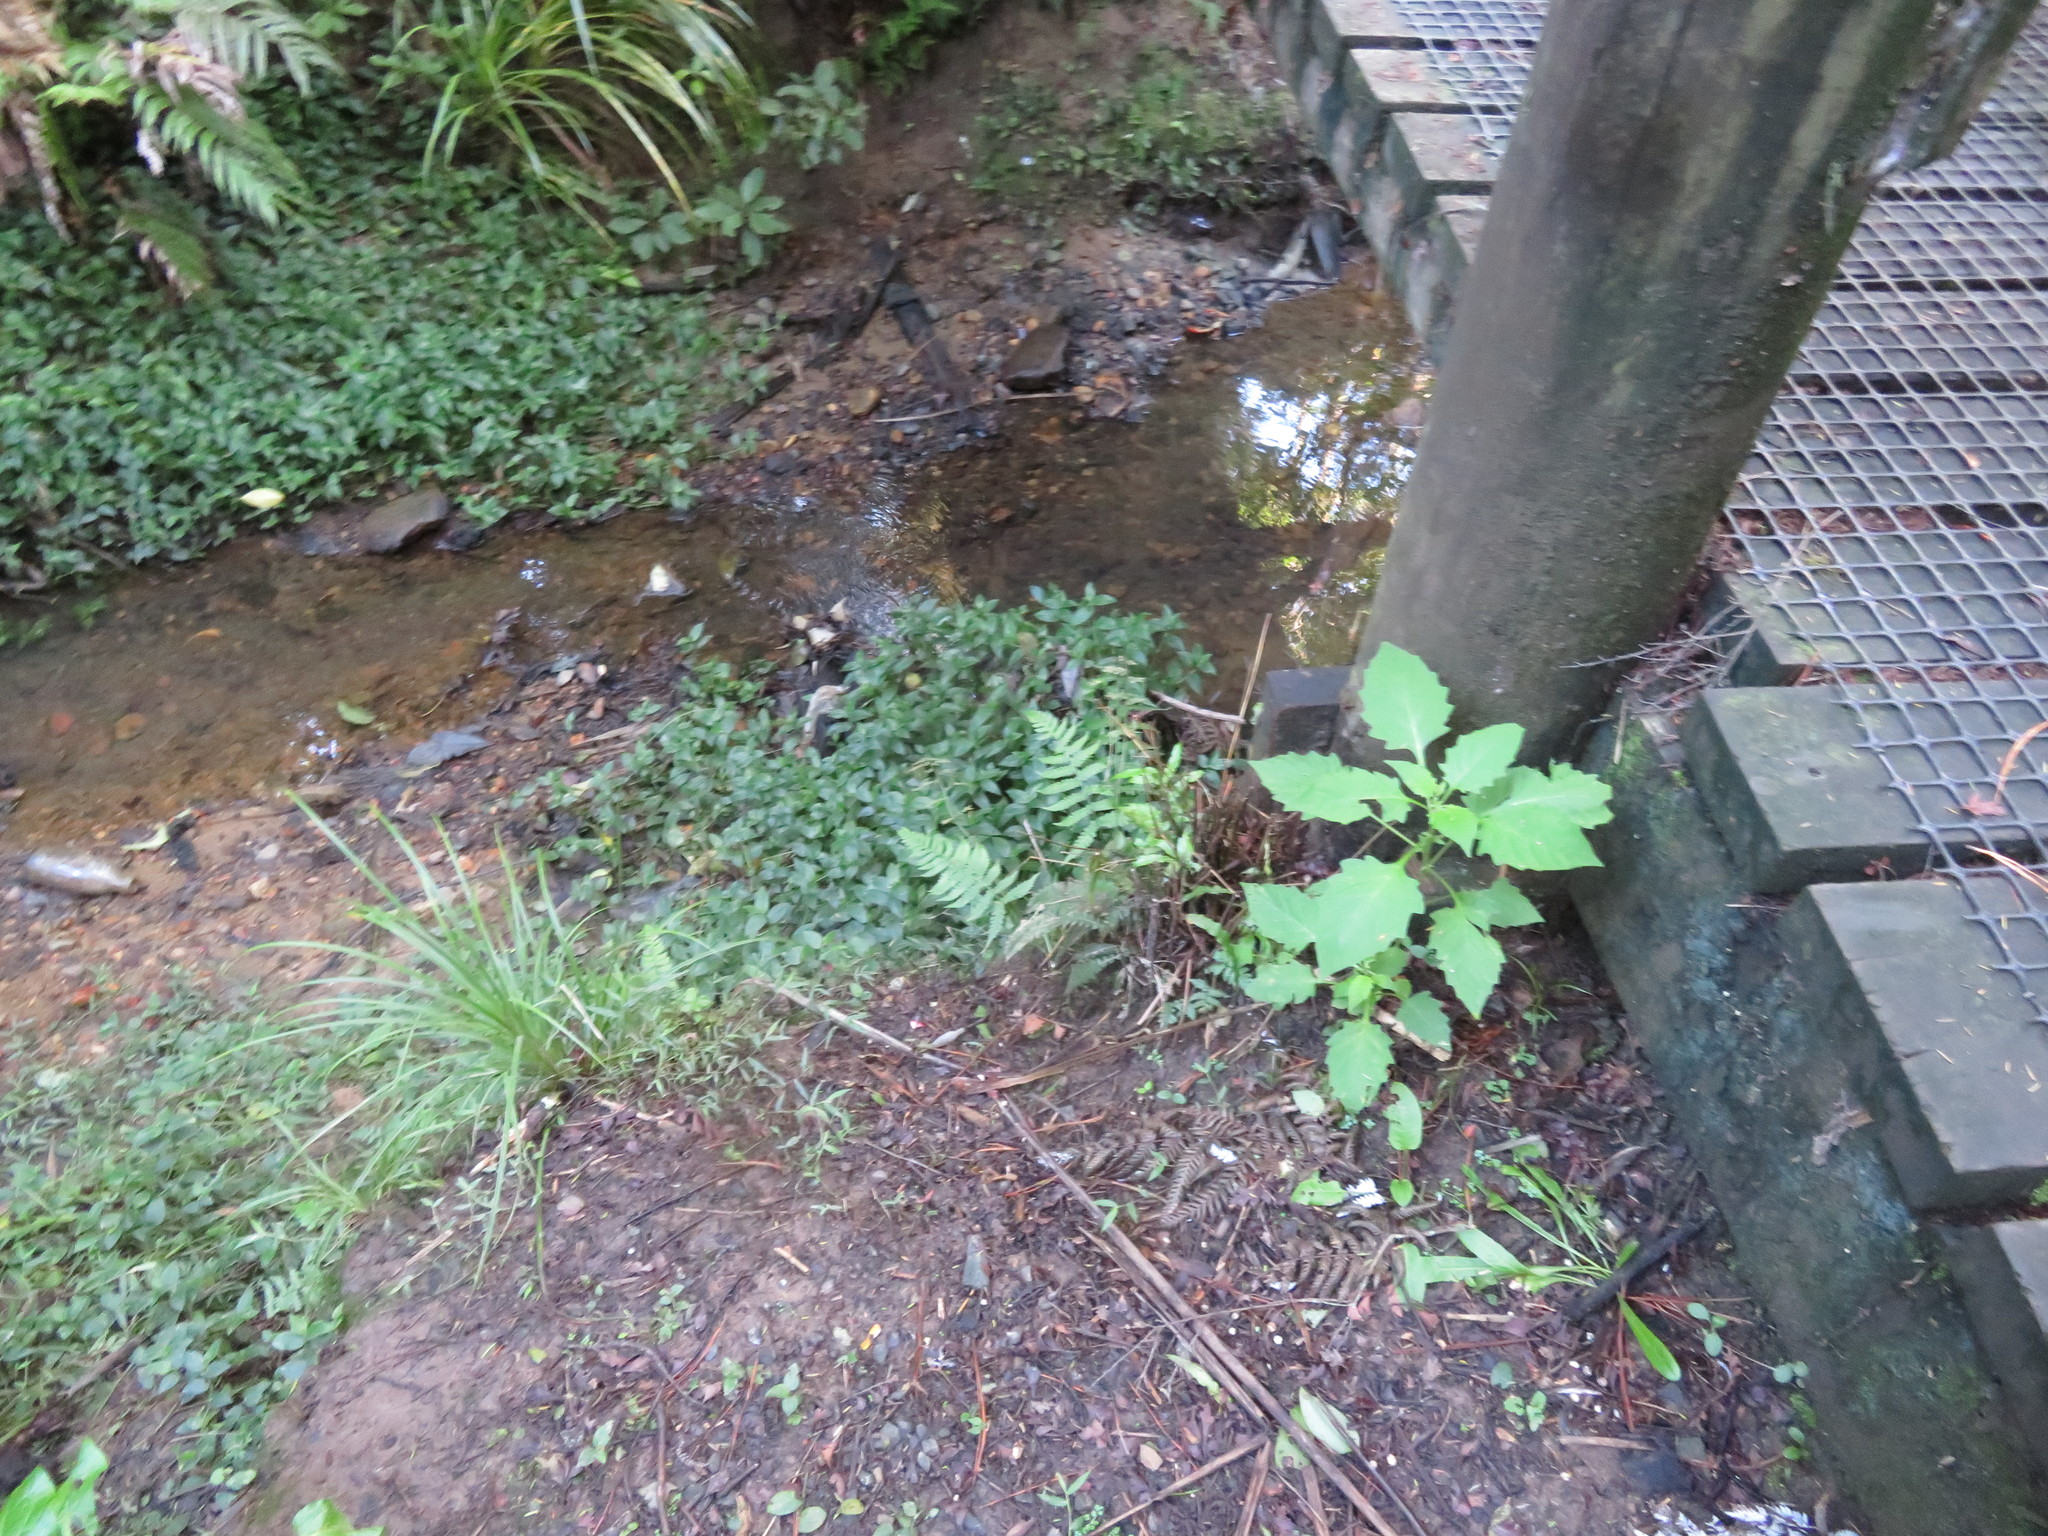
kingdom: Plantae
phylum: Tracheophyta
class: Liliopsida
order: Commelinales
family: Commelinaceae
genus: Tradescantia
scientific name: Tradescantia fluminensis
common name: Wandering-jew
